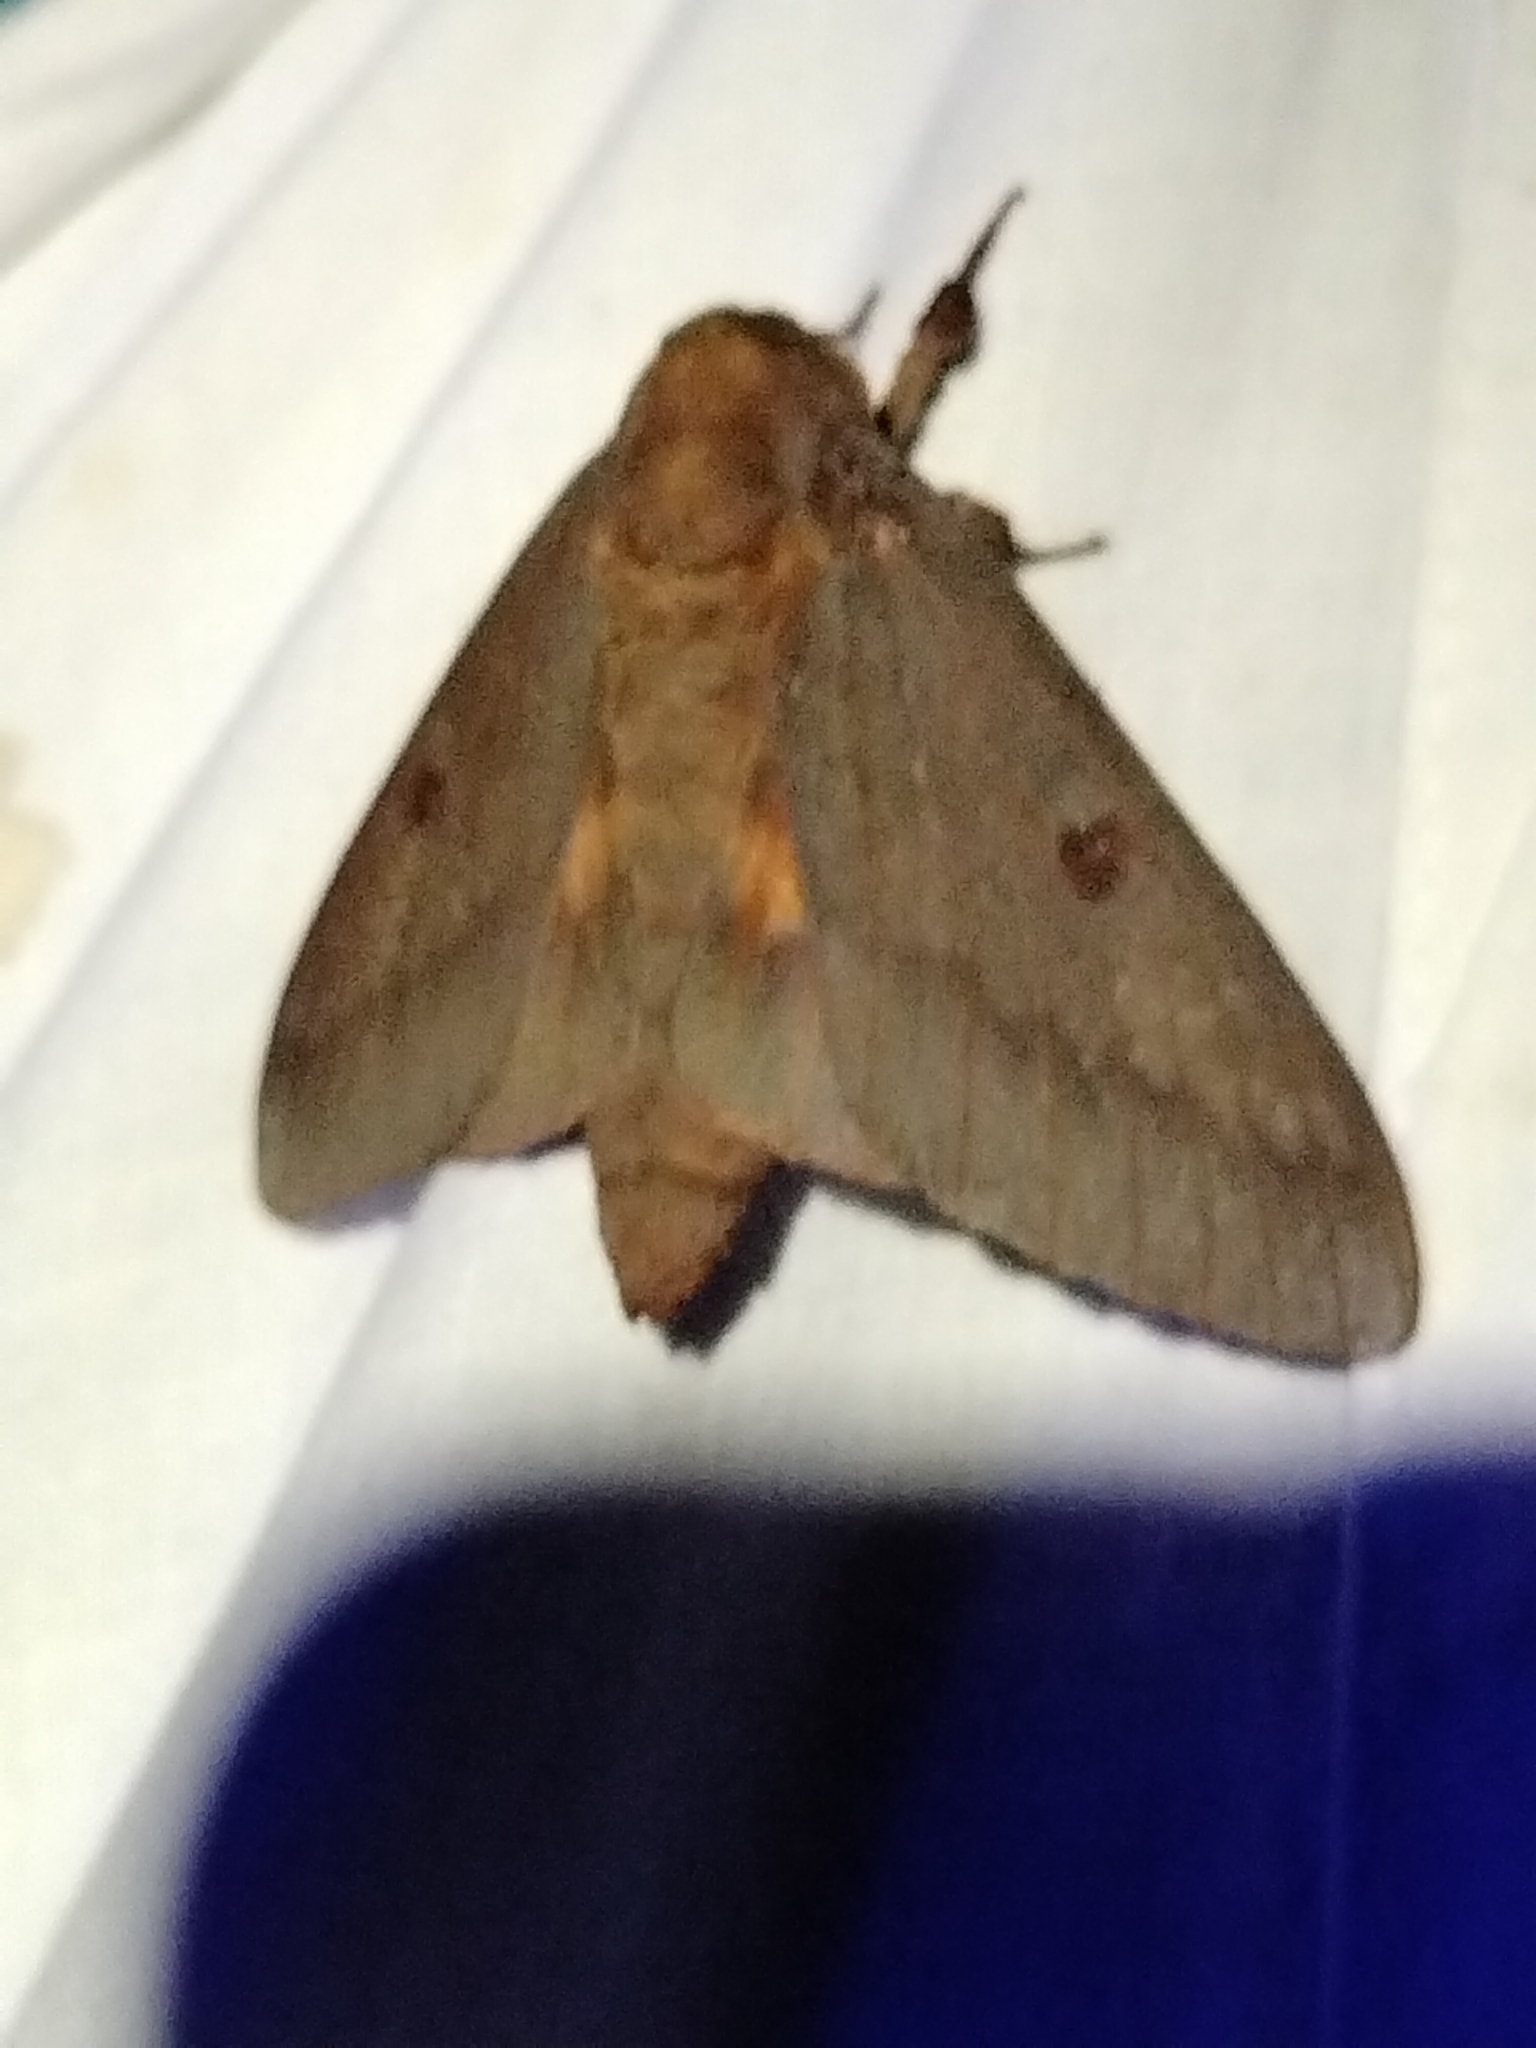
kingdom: Animalia
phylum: Arthropoda
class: Insecta
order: Lepidoptera
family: Saturniidae
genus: Citheronia
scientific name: Citheronia sepulcralis
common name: Pine-devil moth
